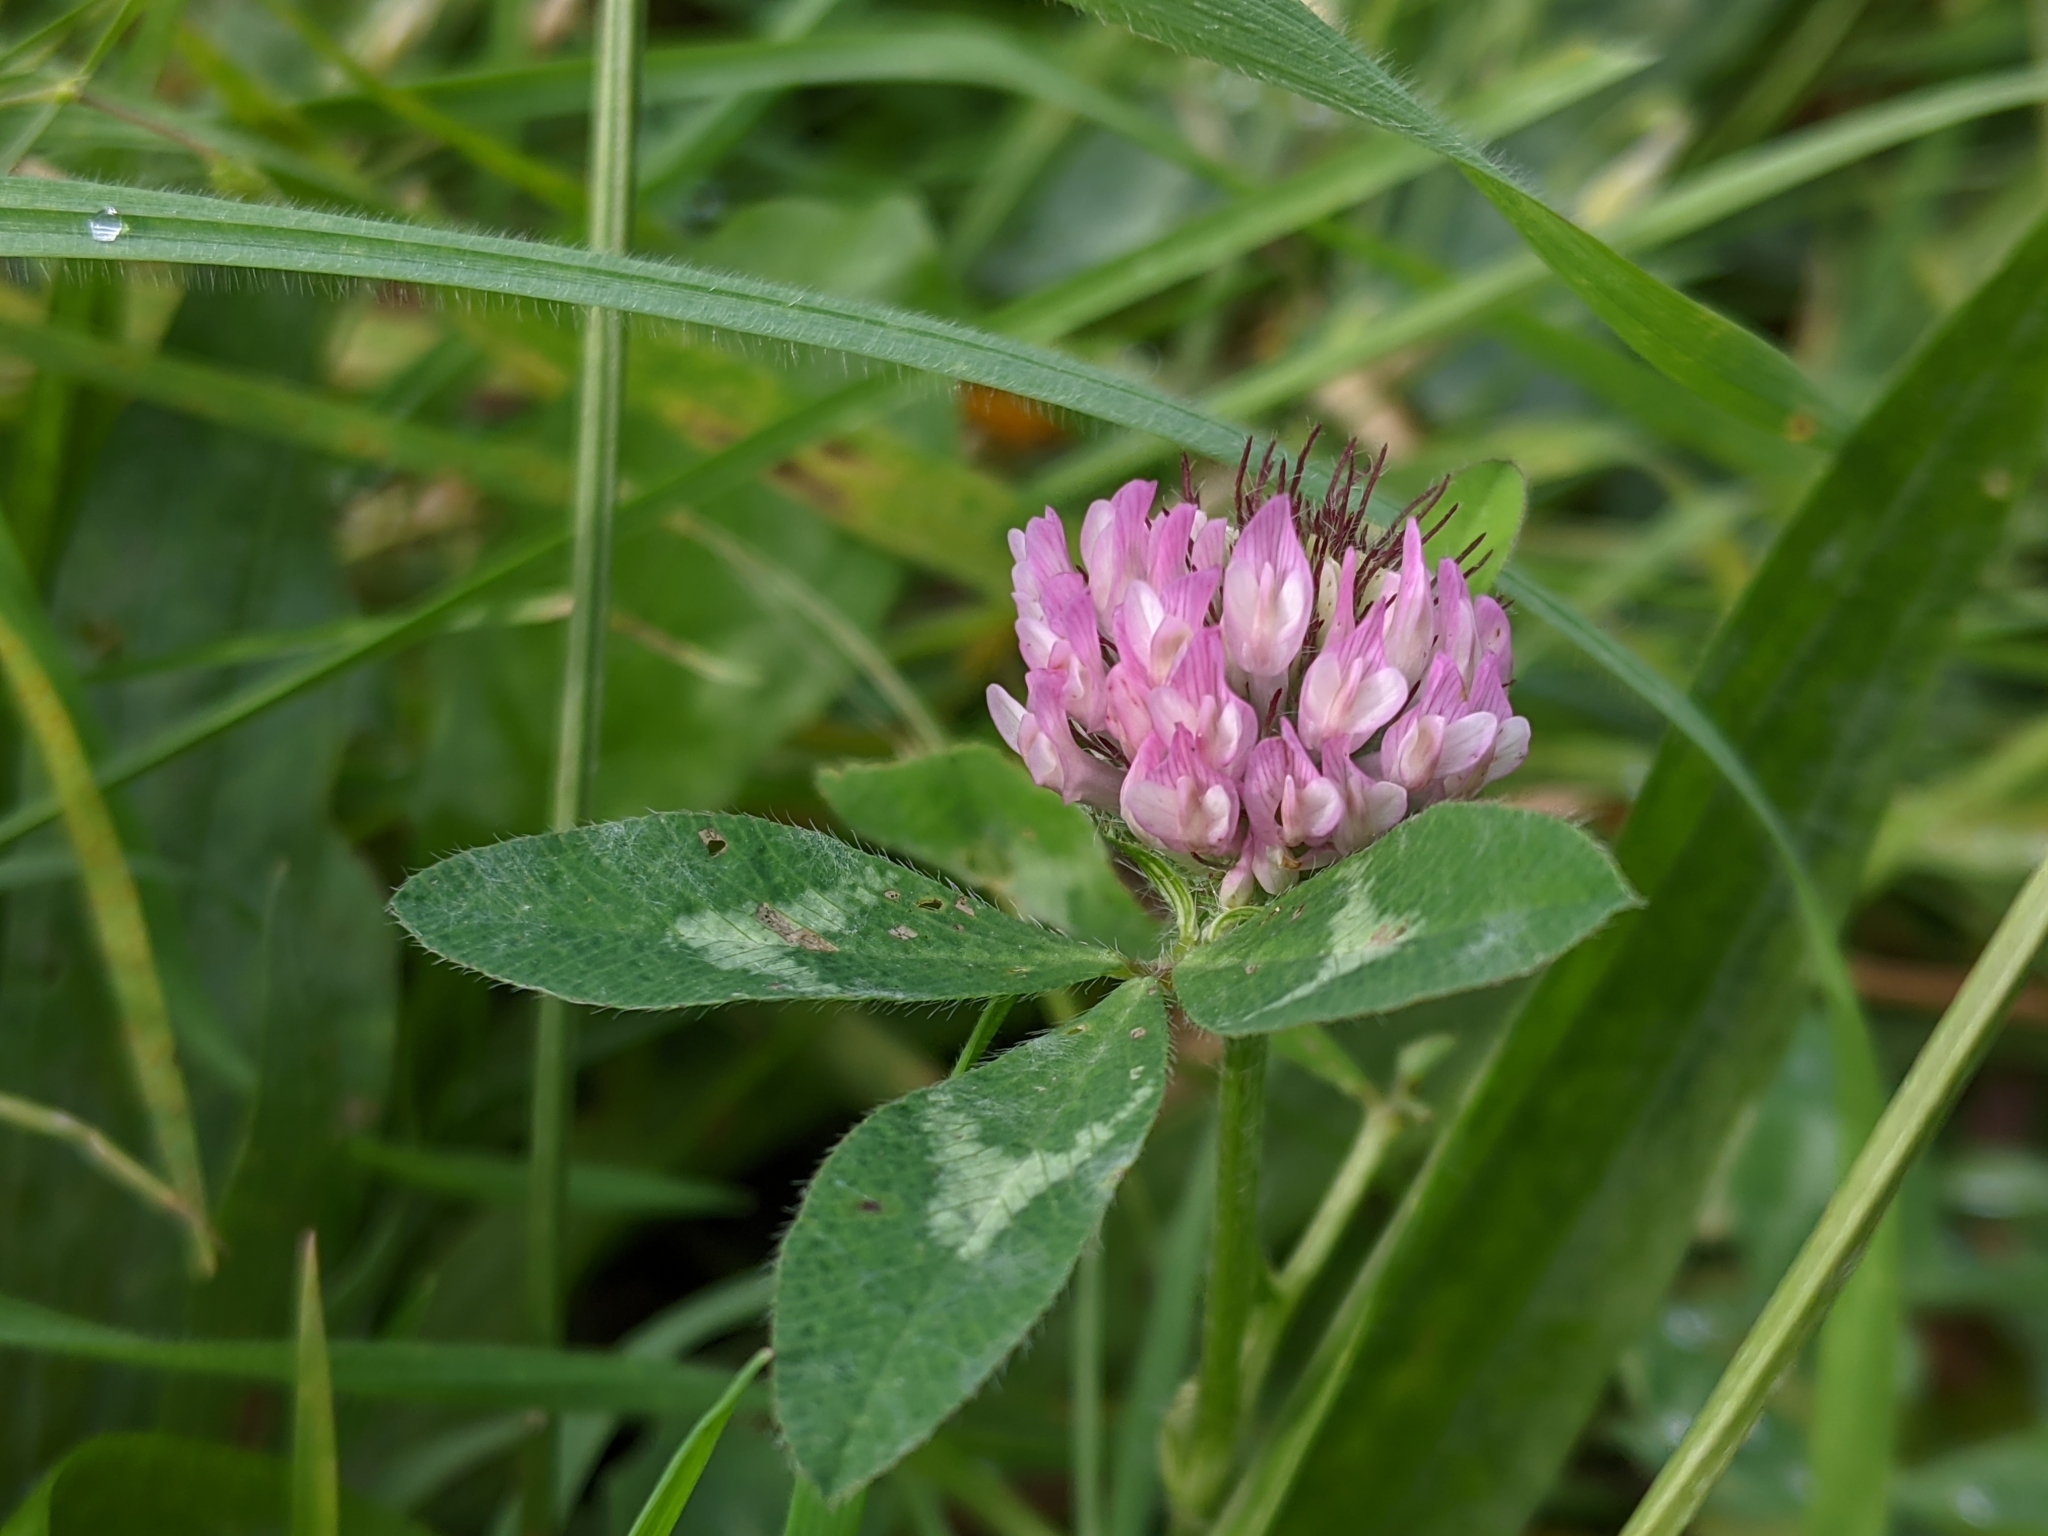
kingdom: Plantae
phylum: Tracheophyta
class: Magnoliopsida
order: Fabales
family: Fabaceae
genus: Trifolium
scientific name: Trifolium pratense
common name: Red clover
